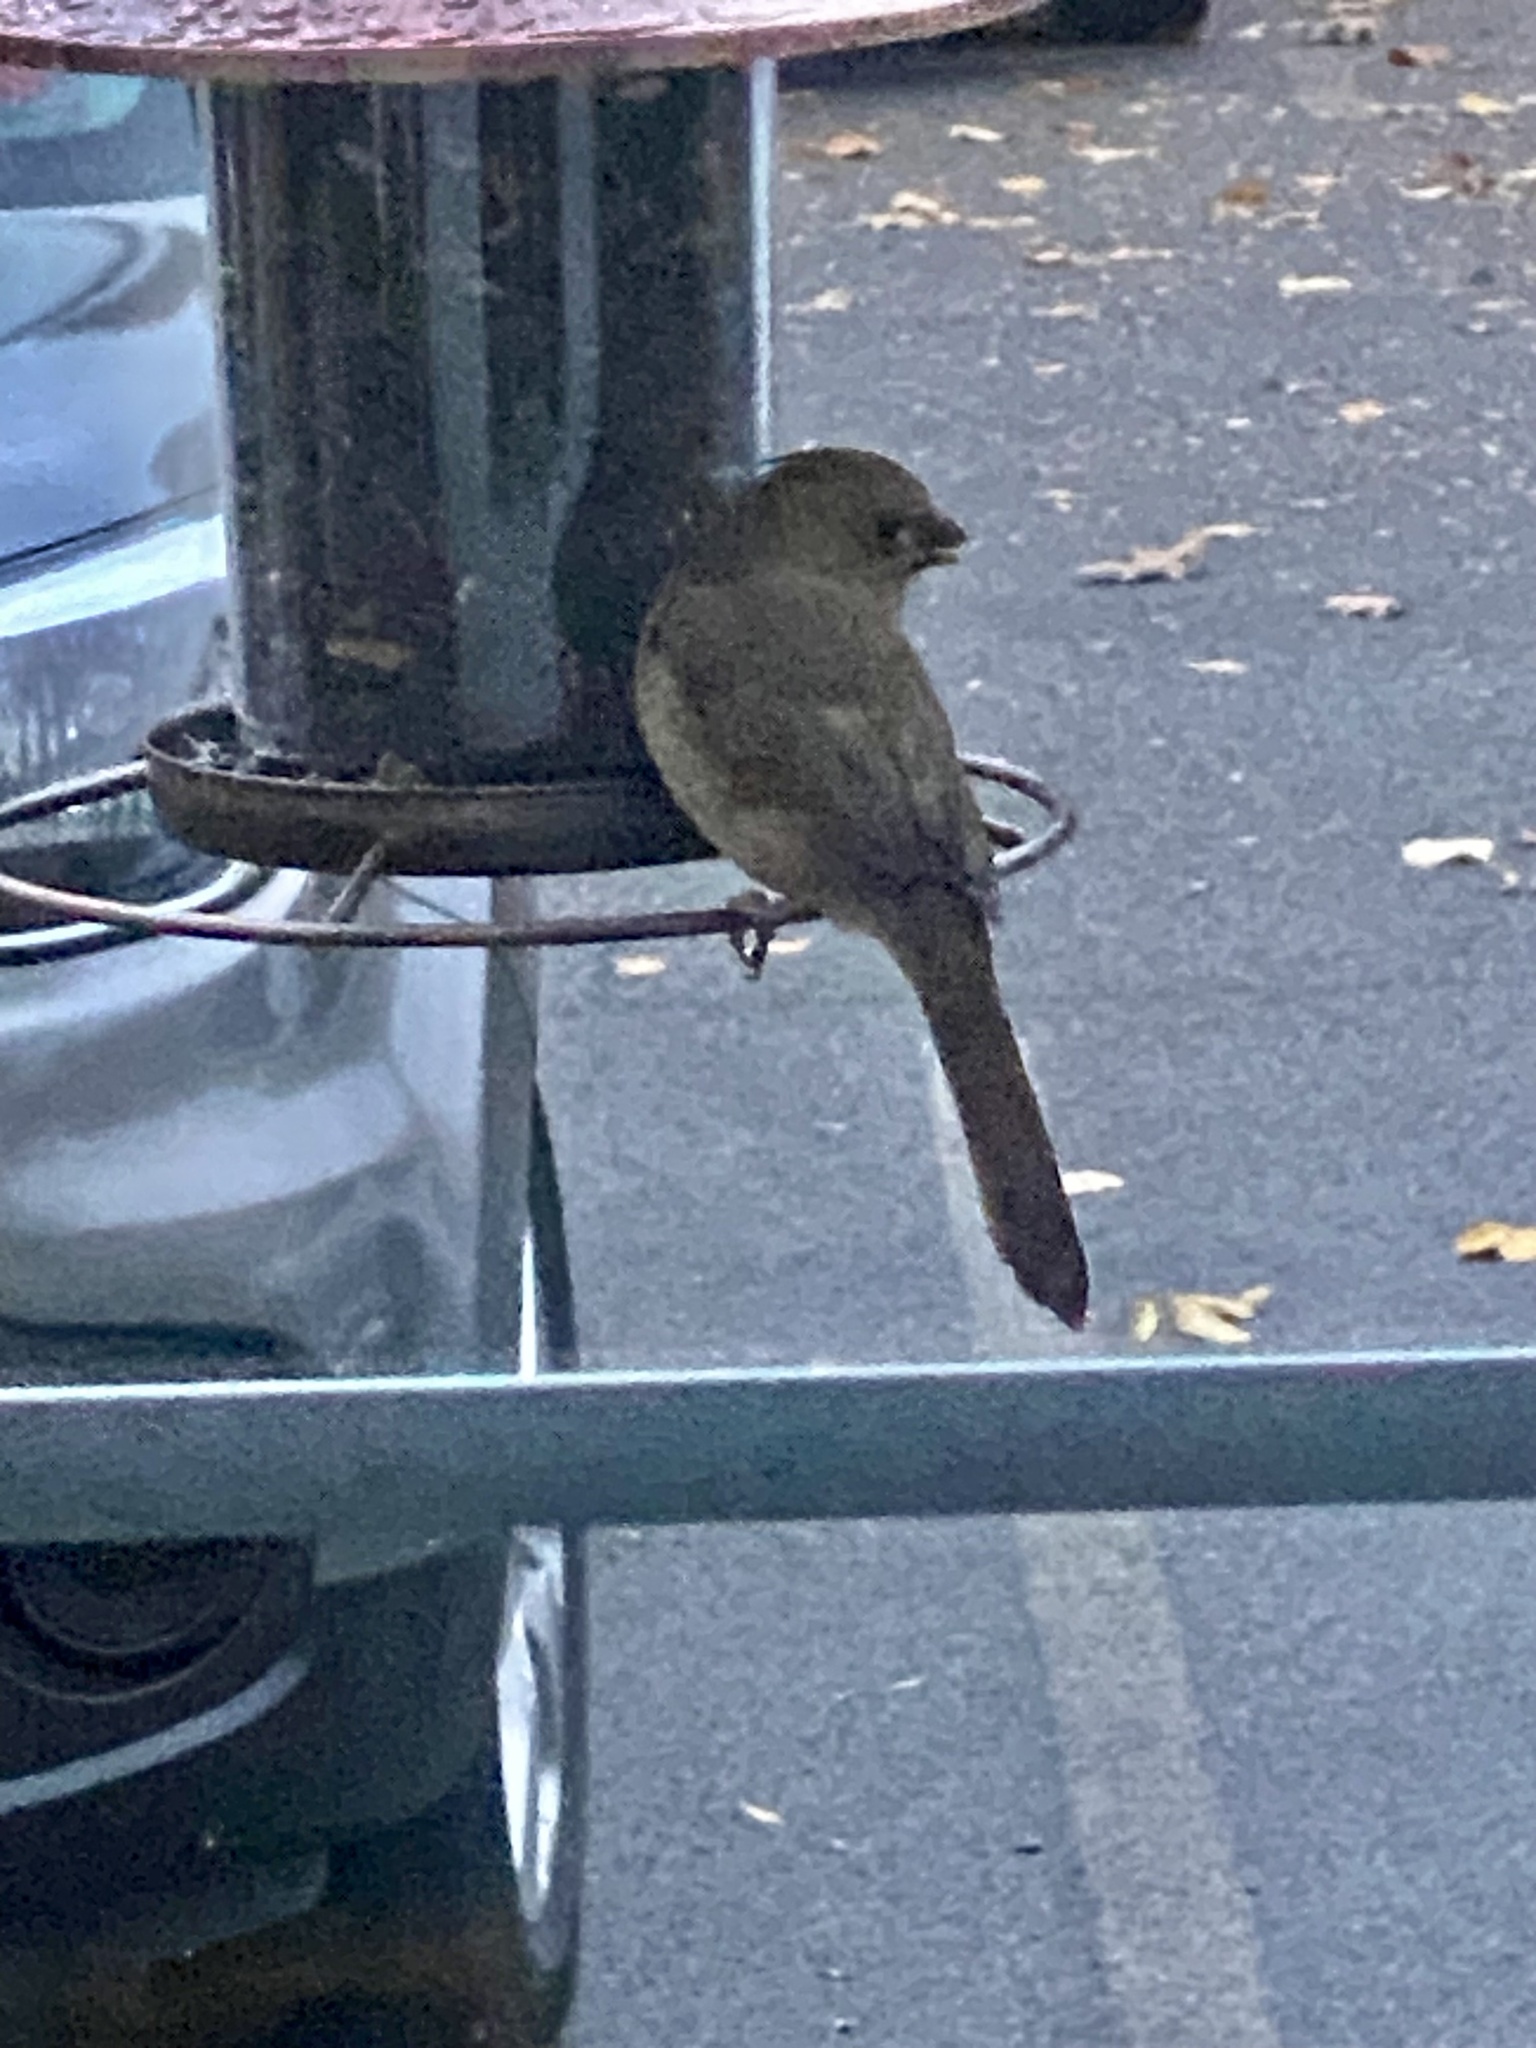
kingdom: Animalia
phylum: Chordata
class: Aves
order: Passeriformes
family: Cardinalidae
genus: Cardinalis
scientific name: Cardinalis cardinalis
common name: Northern cardinal
